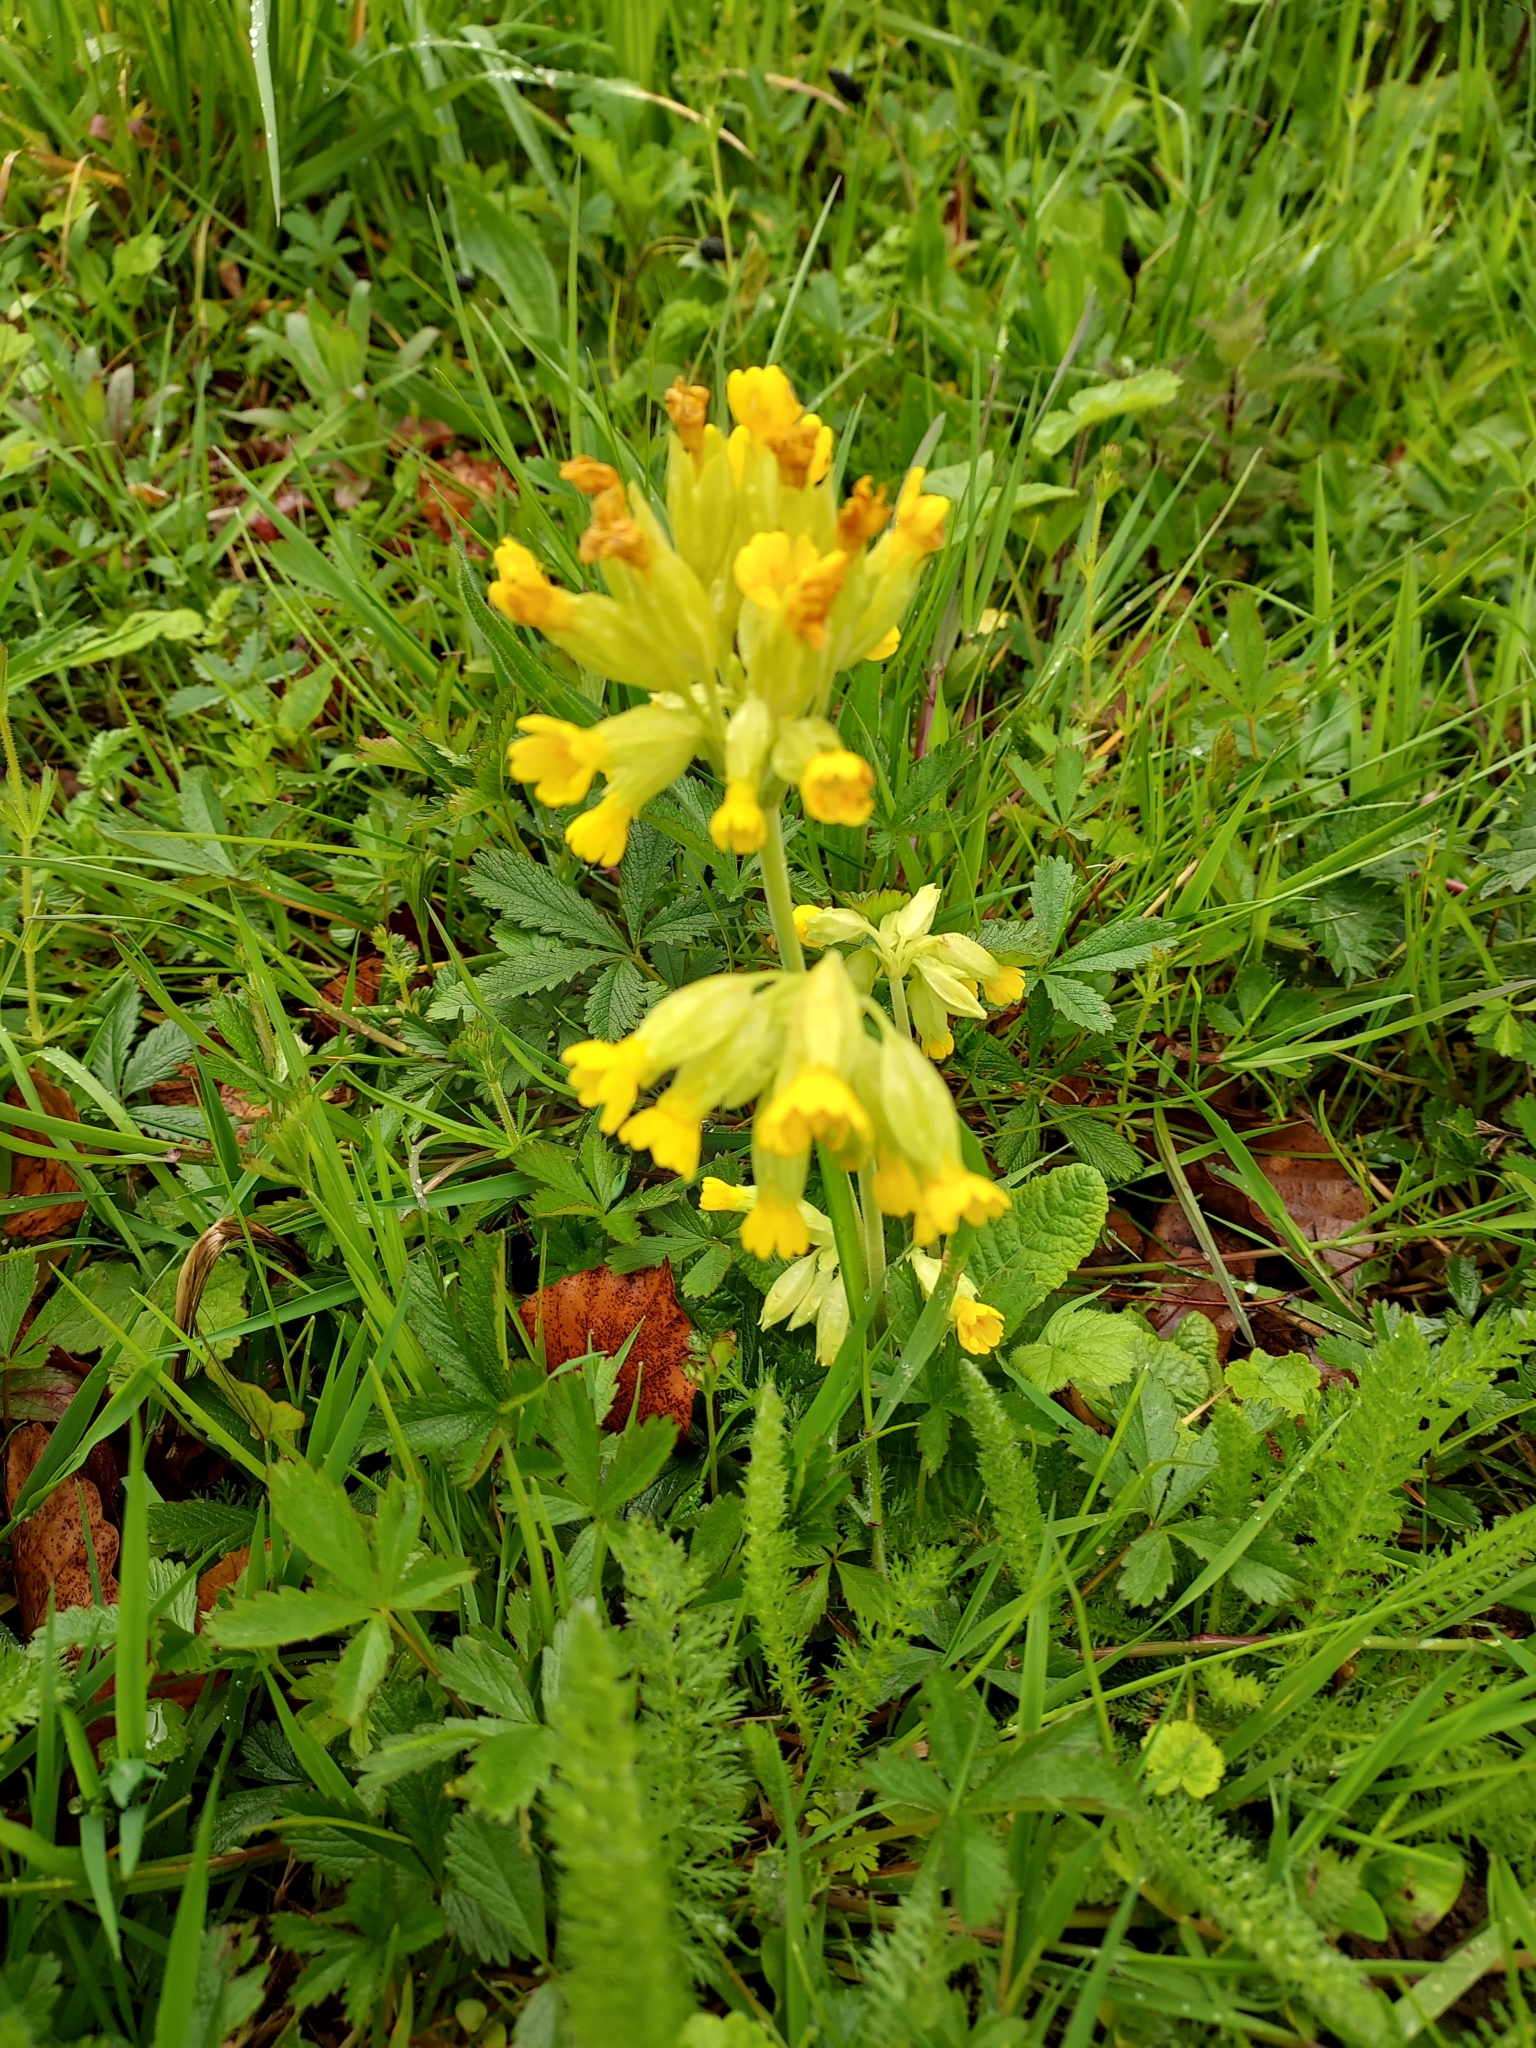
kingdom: Plantae
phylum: Tracheophyta
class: Magnoliopsida
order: Ericales
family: Primulaceae
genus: Primula
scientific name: Primula veris
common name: Cowslip
